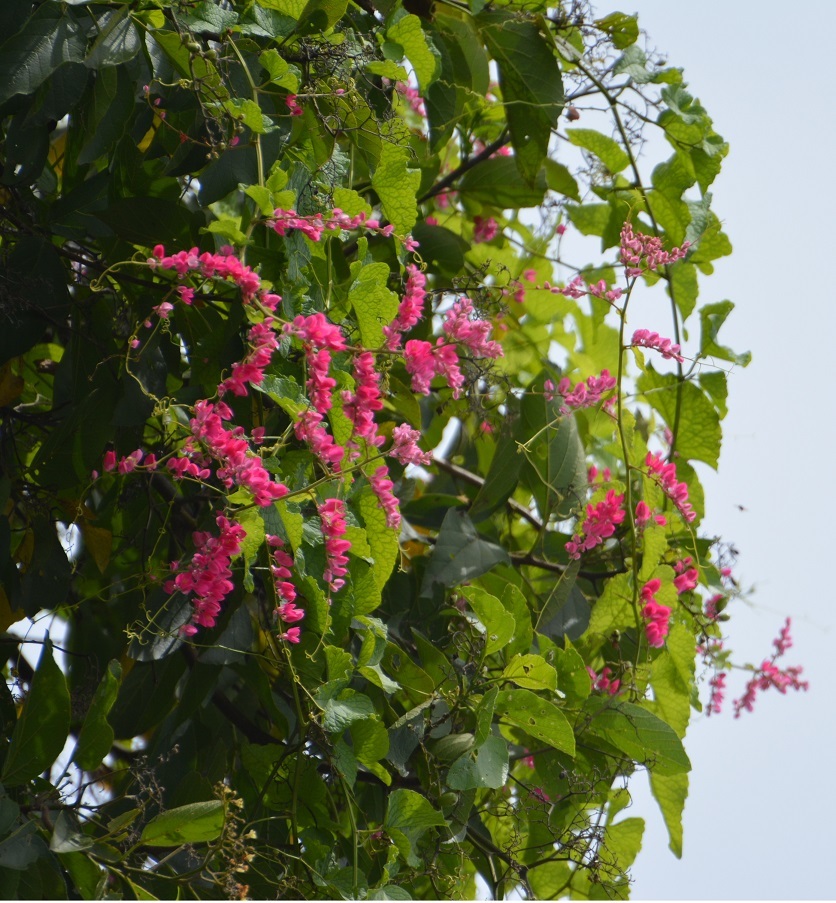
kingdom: Plantae
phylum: Tracheophyta
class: Magnoliopsida
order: Caryophyllales
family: Polygonaceae
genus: Antigonon
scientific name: Antigonon leptopus
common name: Coral vine
